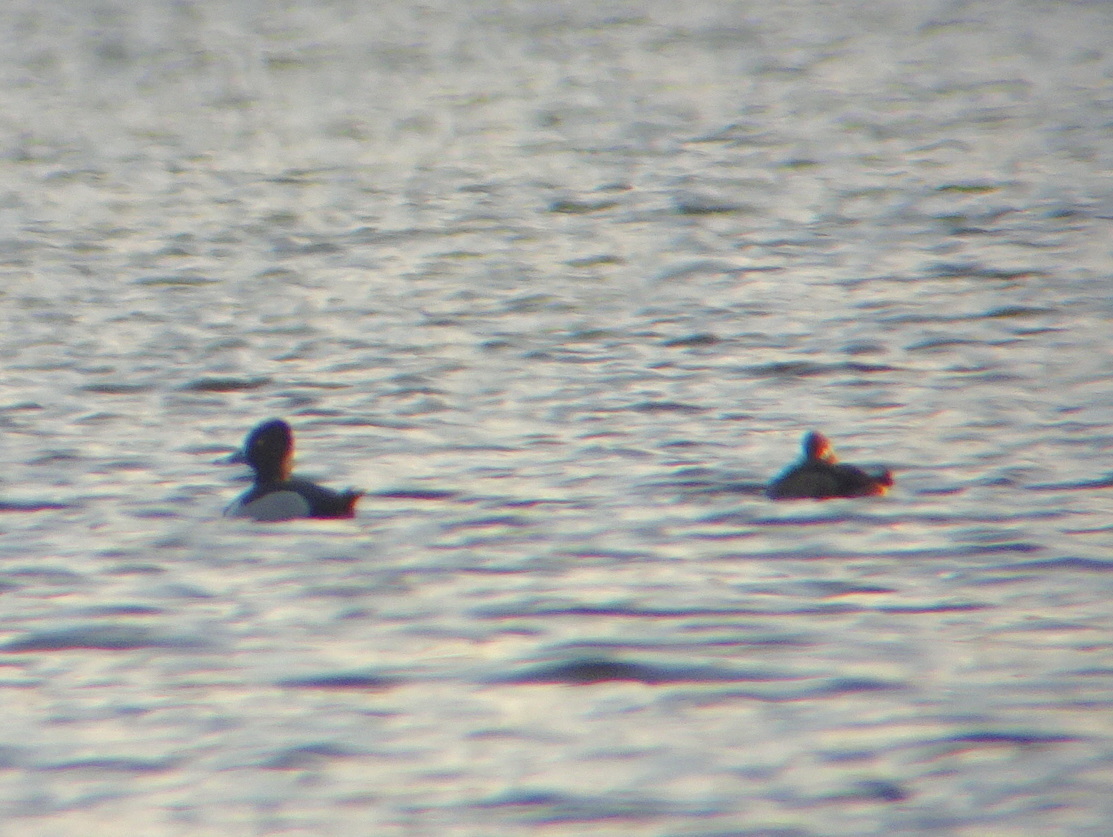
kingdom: Animalia
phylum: Chordata
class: Aves
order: Anseriformes
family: Anatidae
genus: Aythya
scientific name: Aythya collaris
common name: Ring-necked duck
